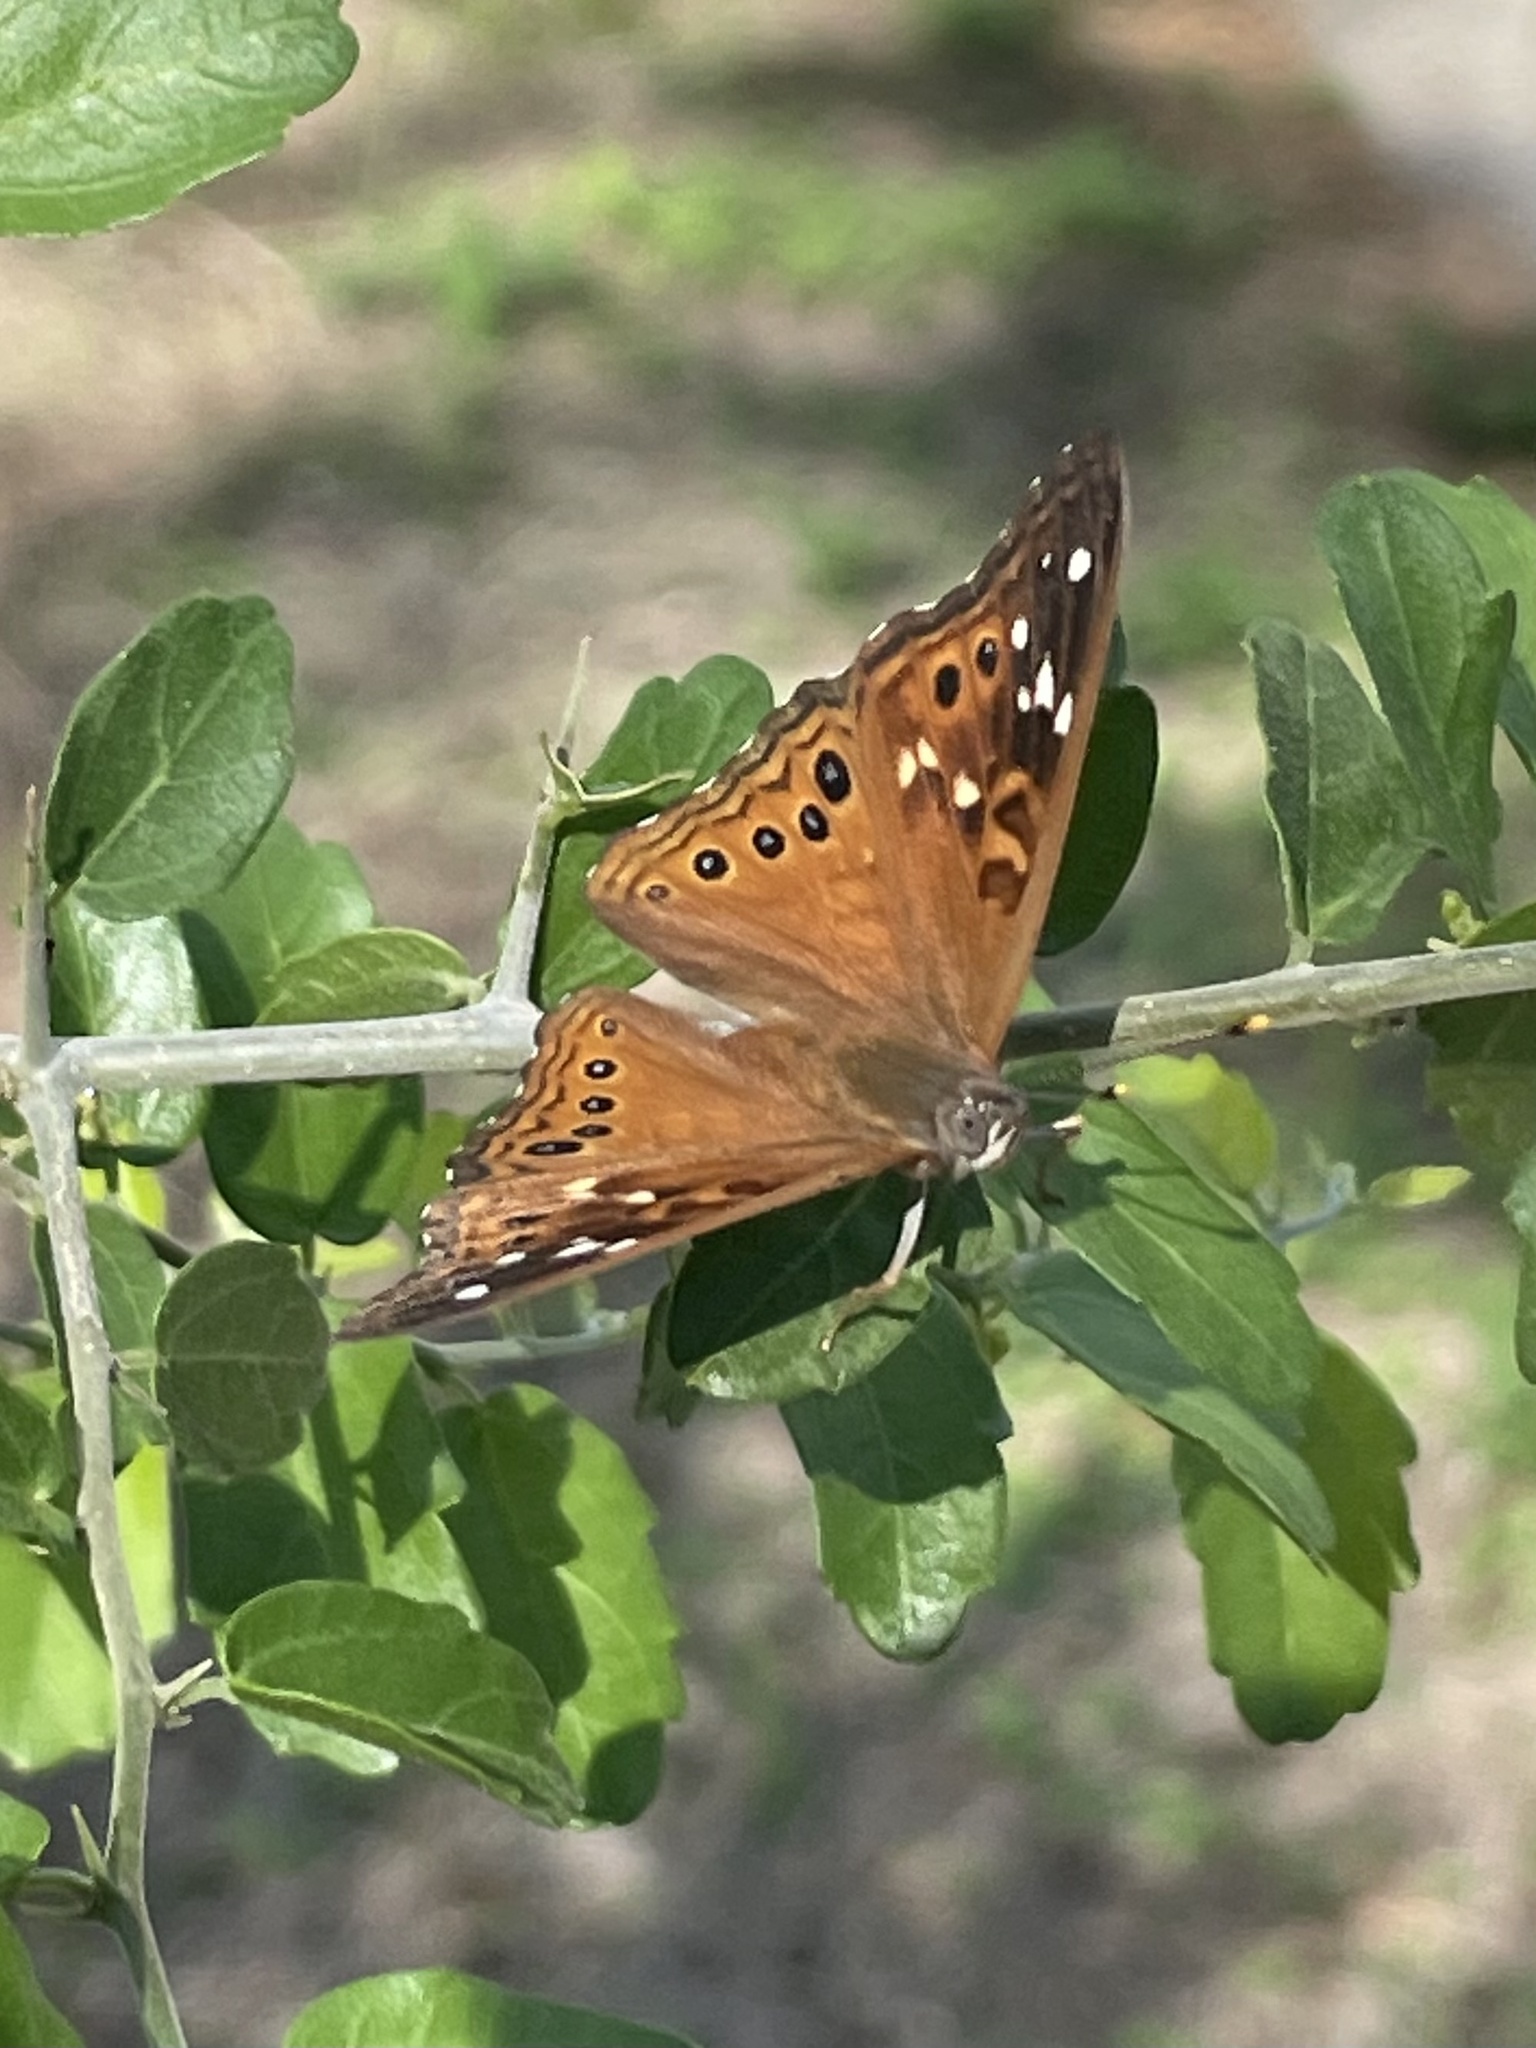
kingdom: Animalia
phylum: Arthropoda
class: Insecta
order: Lepidoptera
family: Nymphalidae
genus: Asterocampa
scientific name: Asterocampa leilia
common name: Empress leilia
